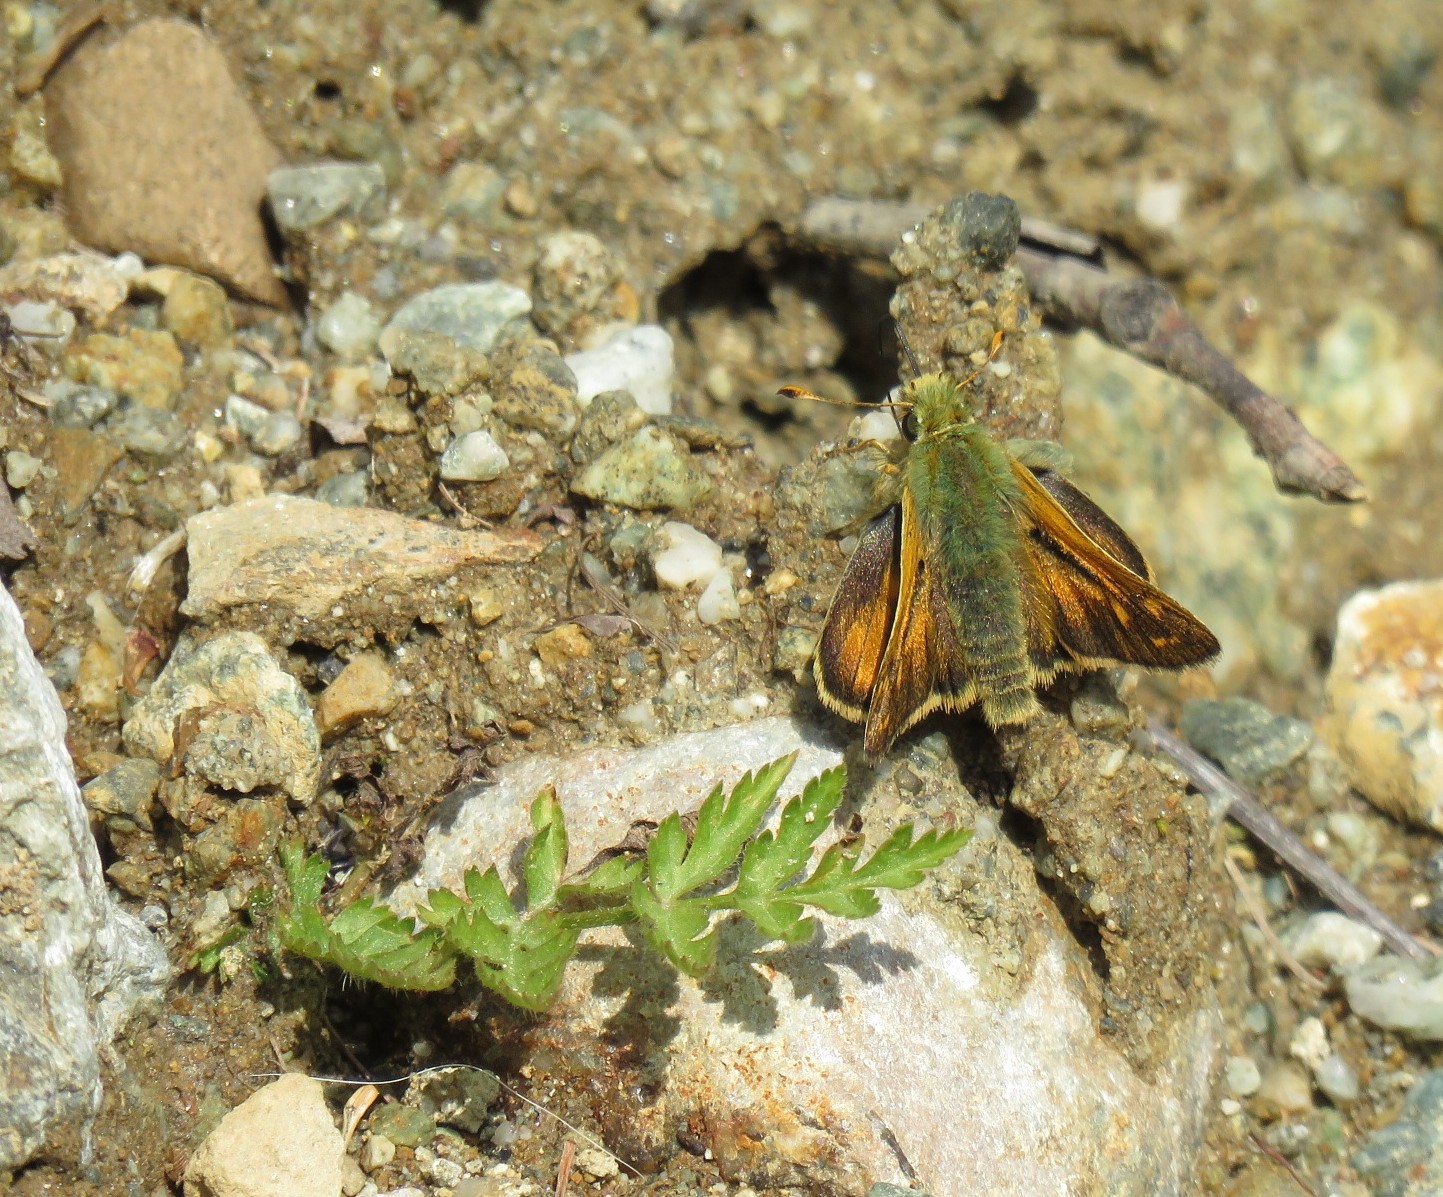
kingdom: Animalia
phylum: Arthropoda
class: Insecta
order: Lepidoptera
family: Hesperiidae
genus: Hesperia
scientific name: Hesperia comma
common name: Common branded skipper
